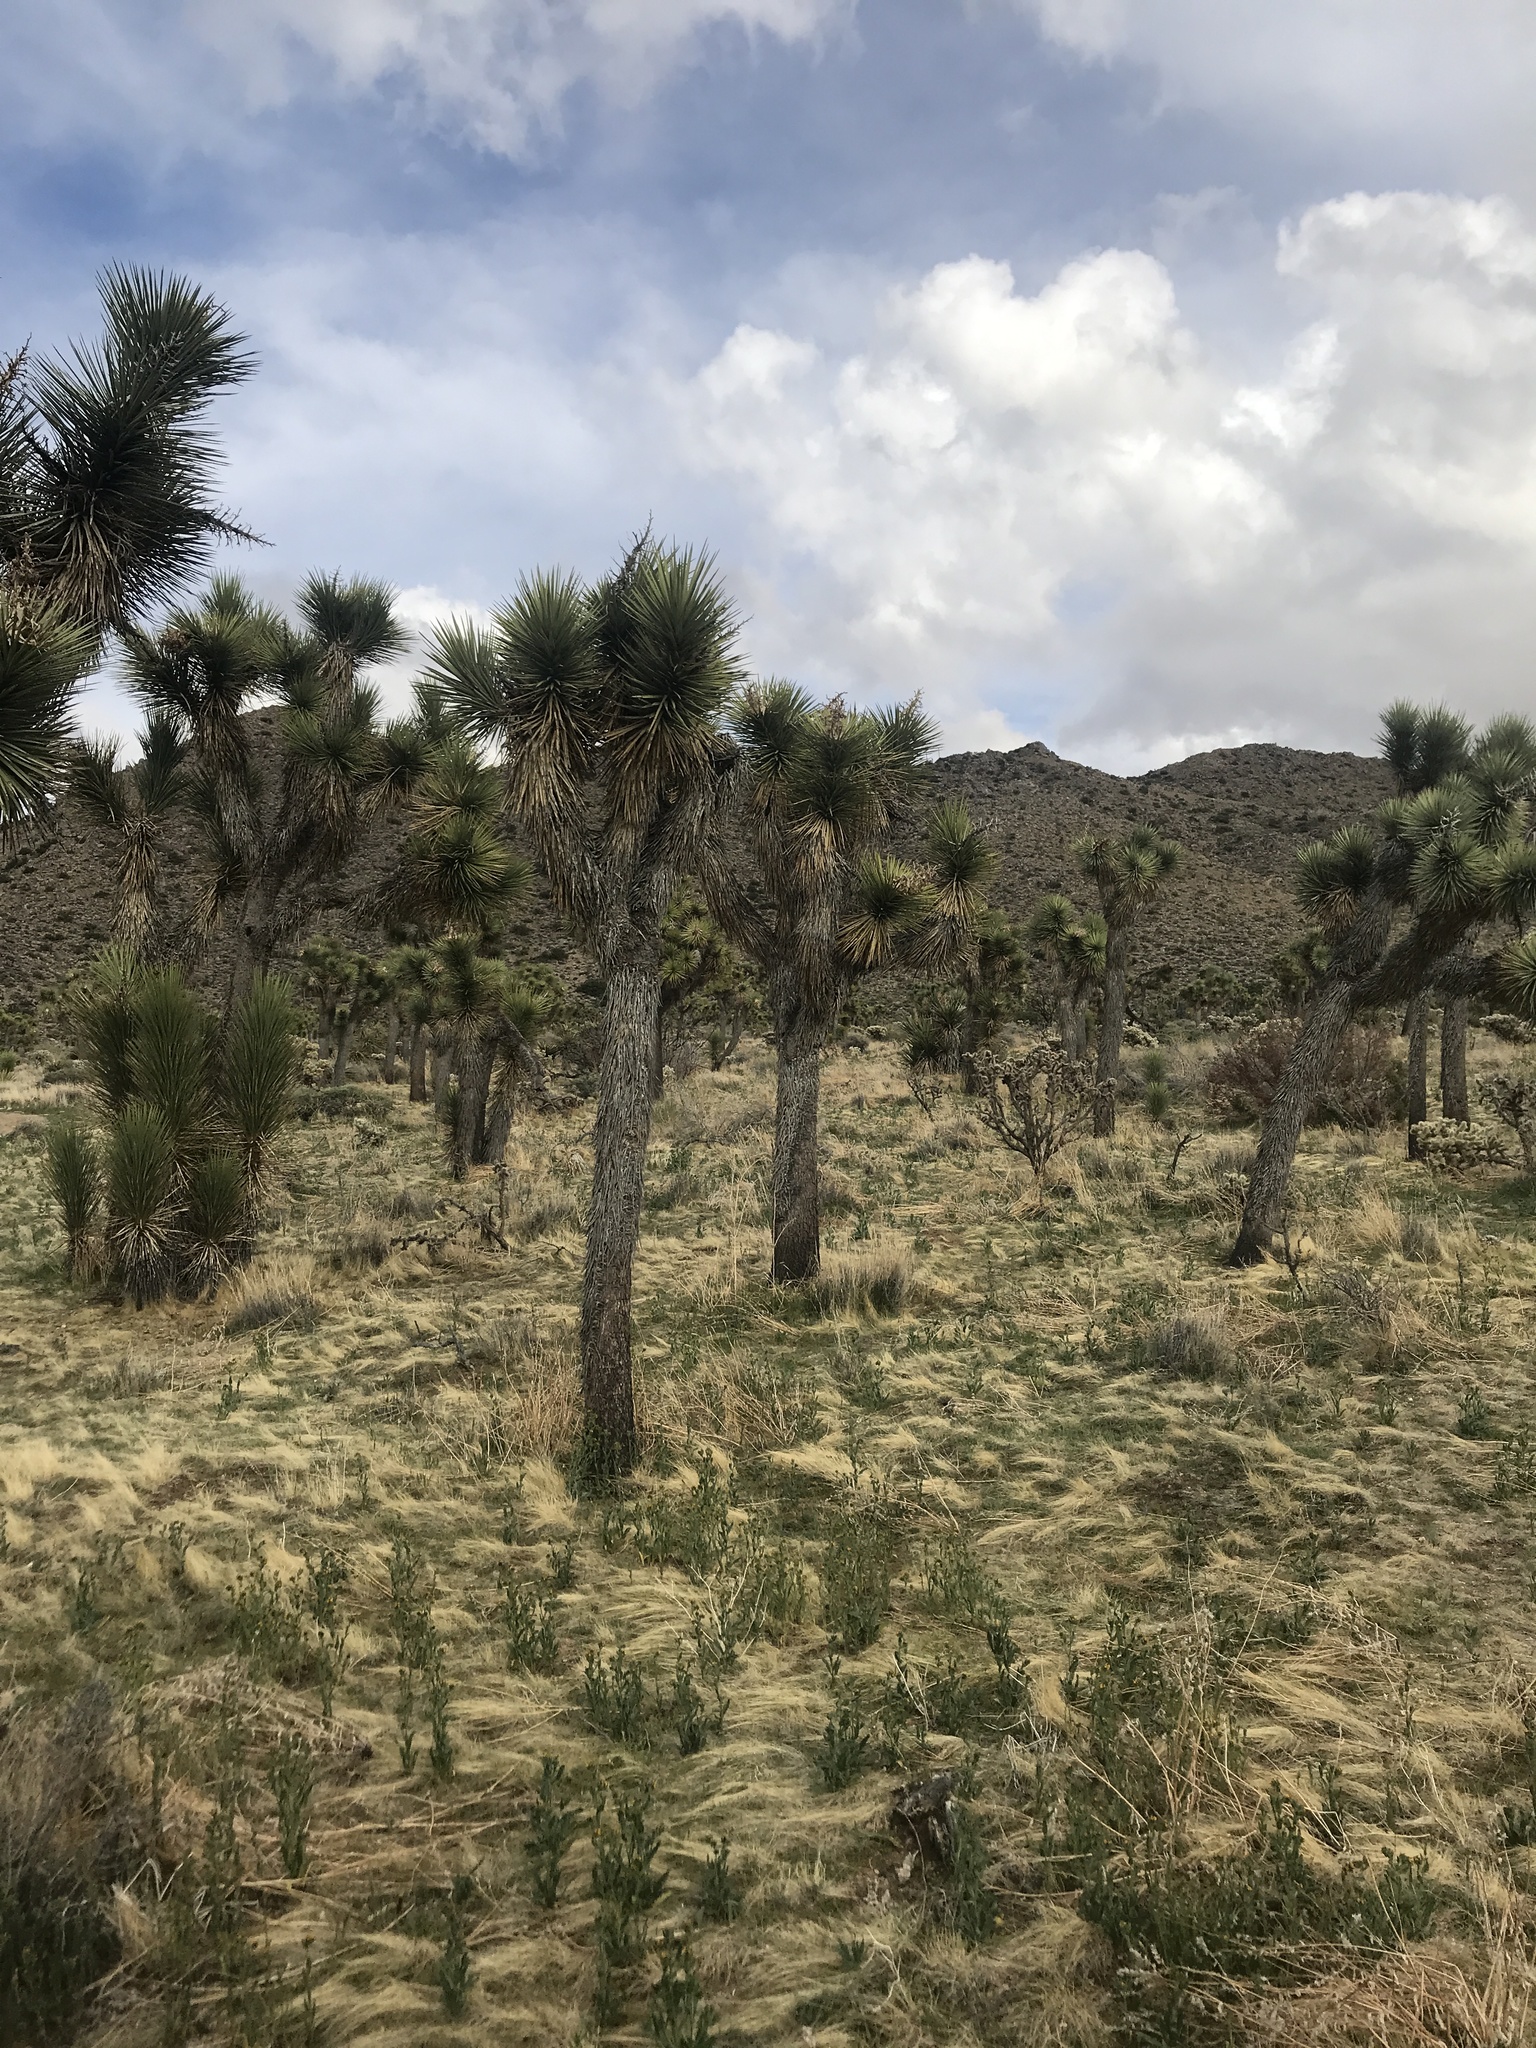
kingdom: Plantae
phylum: Tracheophyta
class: Liliopsida
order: Asparagales
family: Asparagaceae
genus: Yucca
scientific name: Yucca brevifolia
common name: Joshua tree
